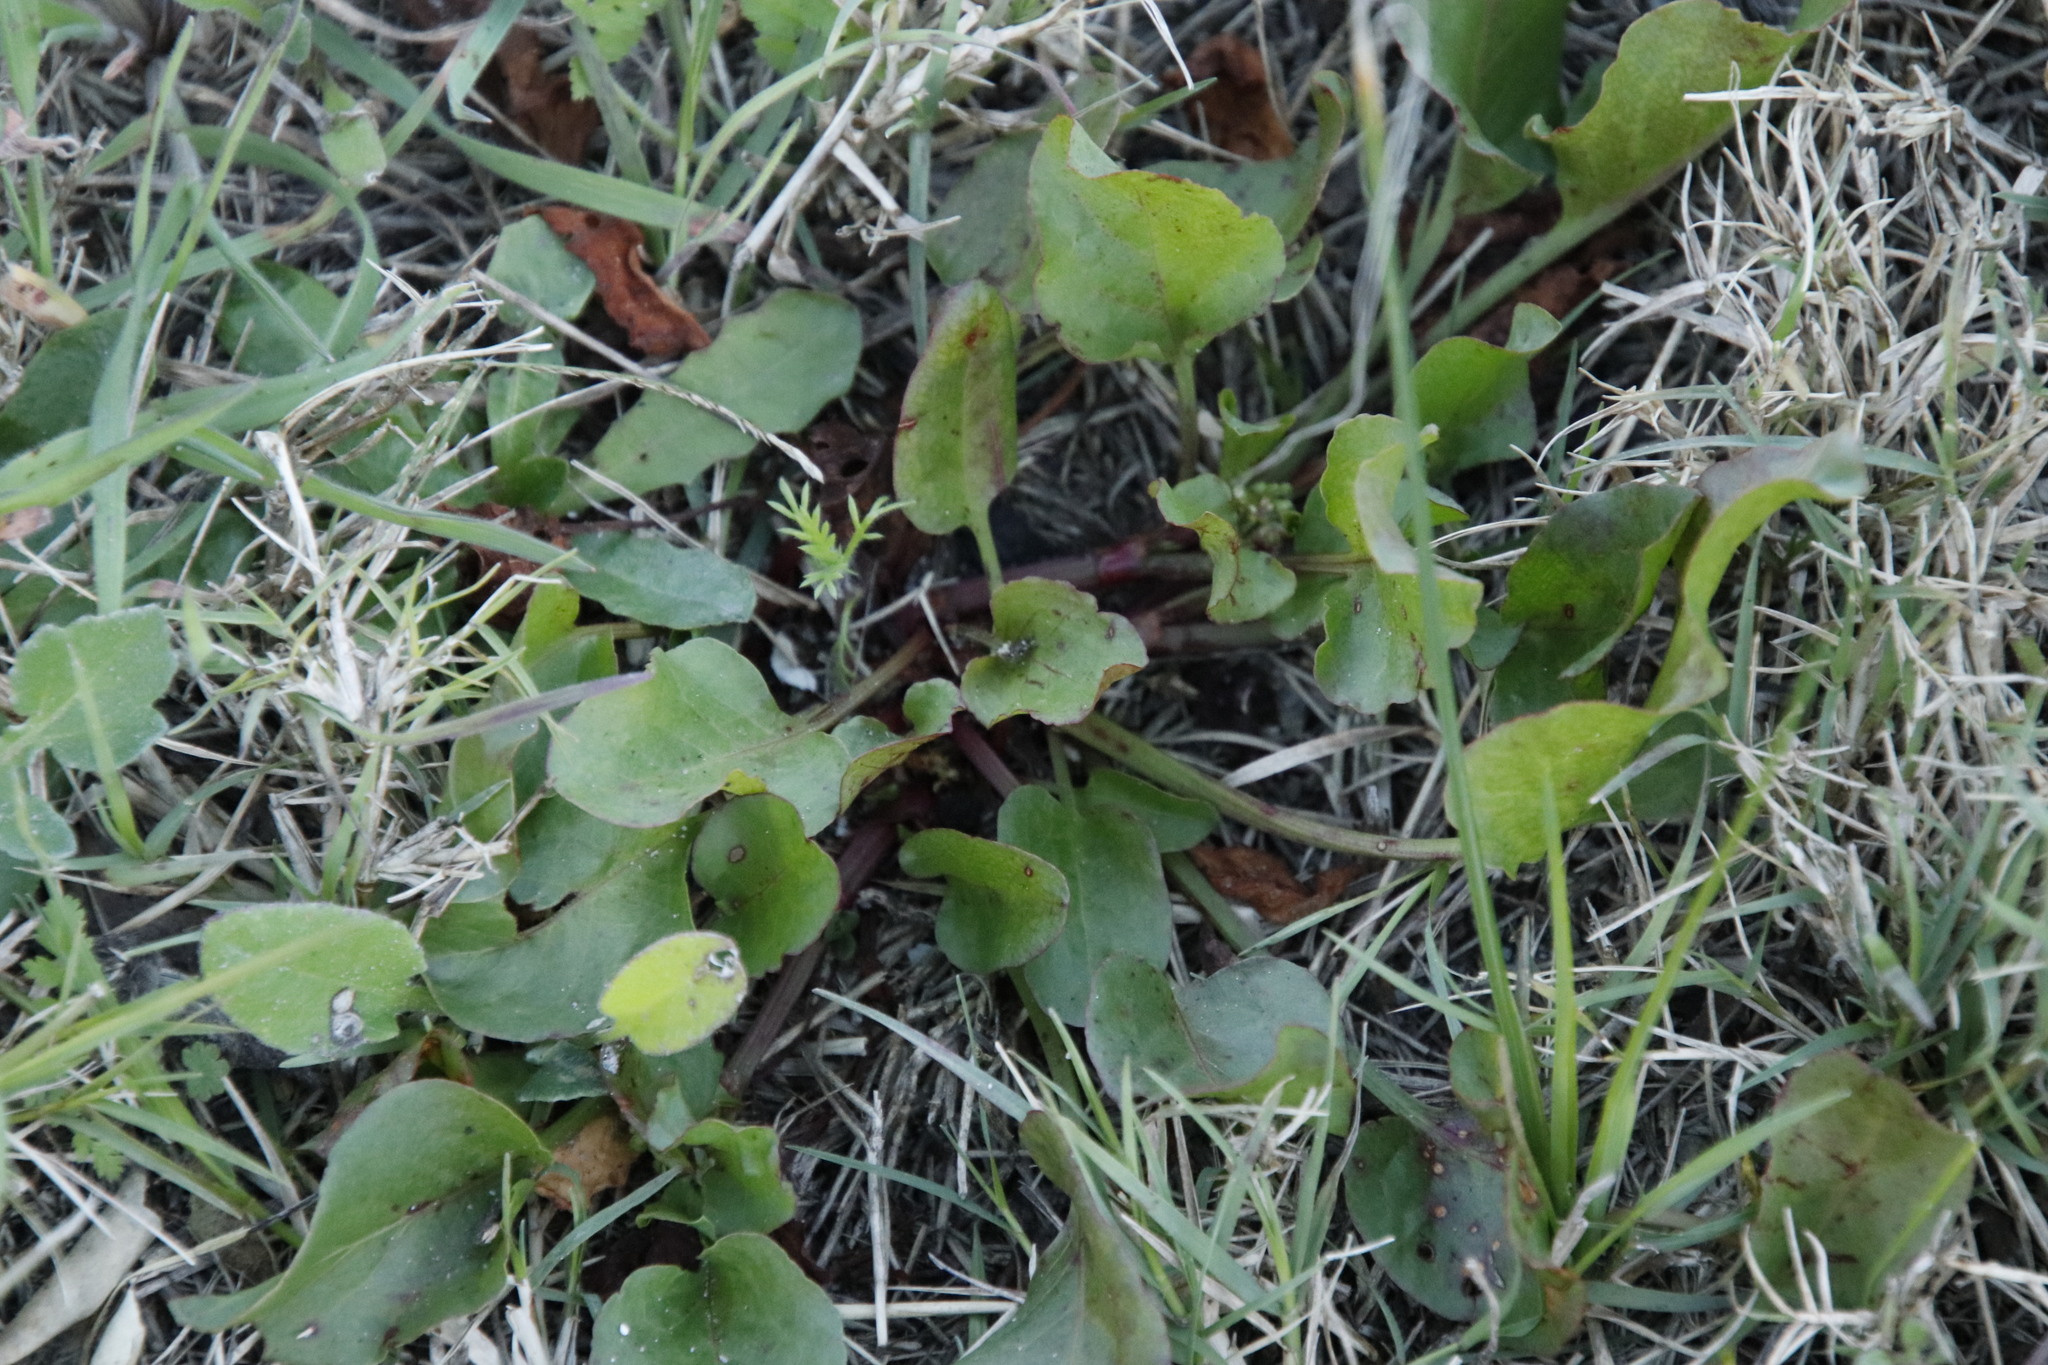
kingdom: Plantae
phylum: Tracheophyta
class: Magnoliopsida
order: Caryophyllales
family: Polygonaceae
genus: Rumex
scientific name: Rumex hypogaeus
